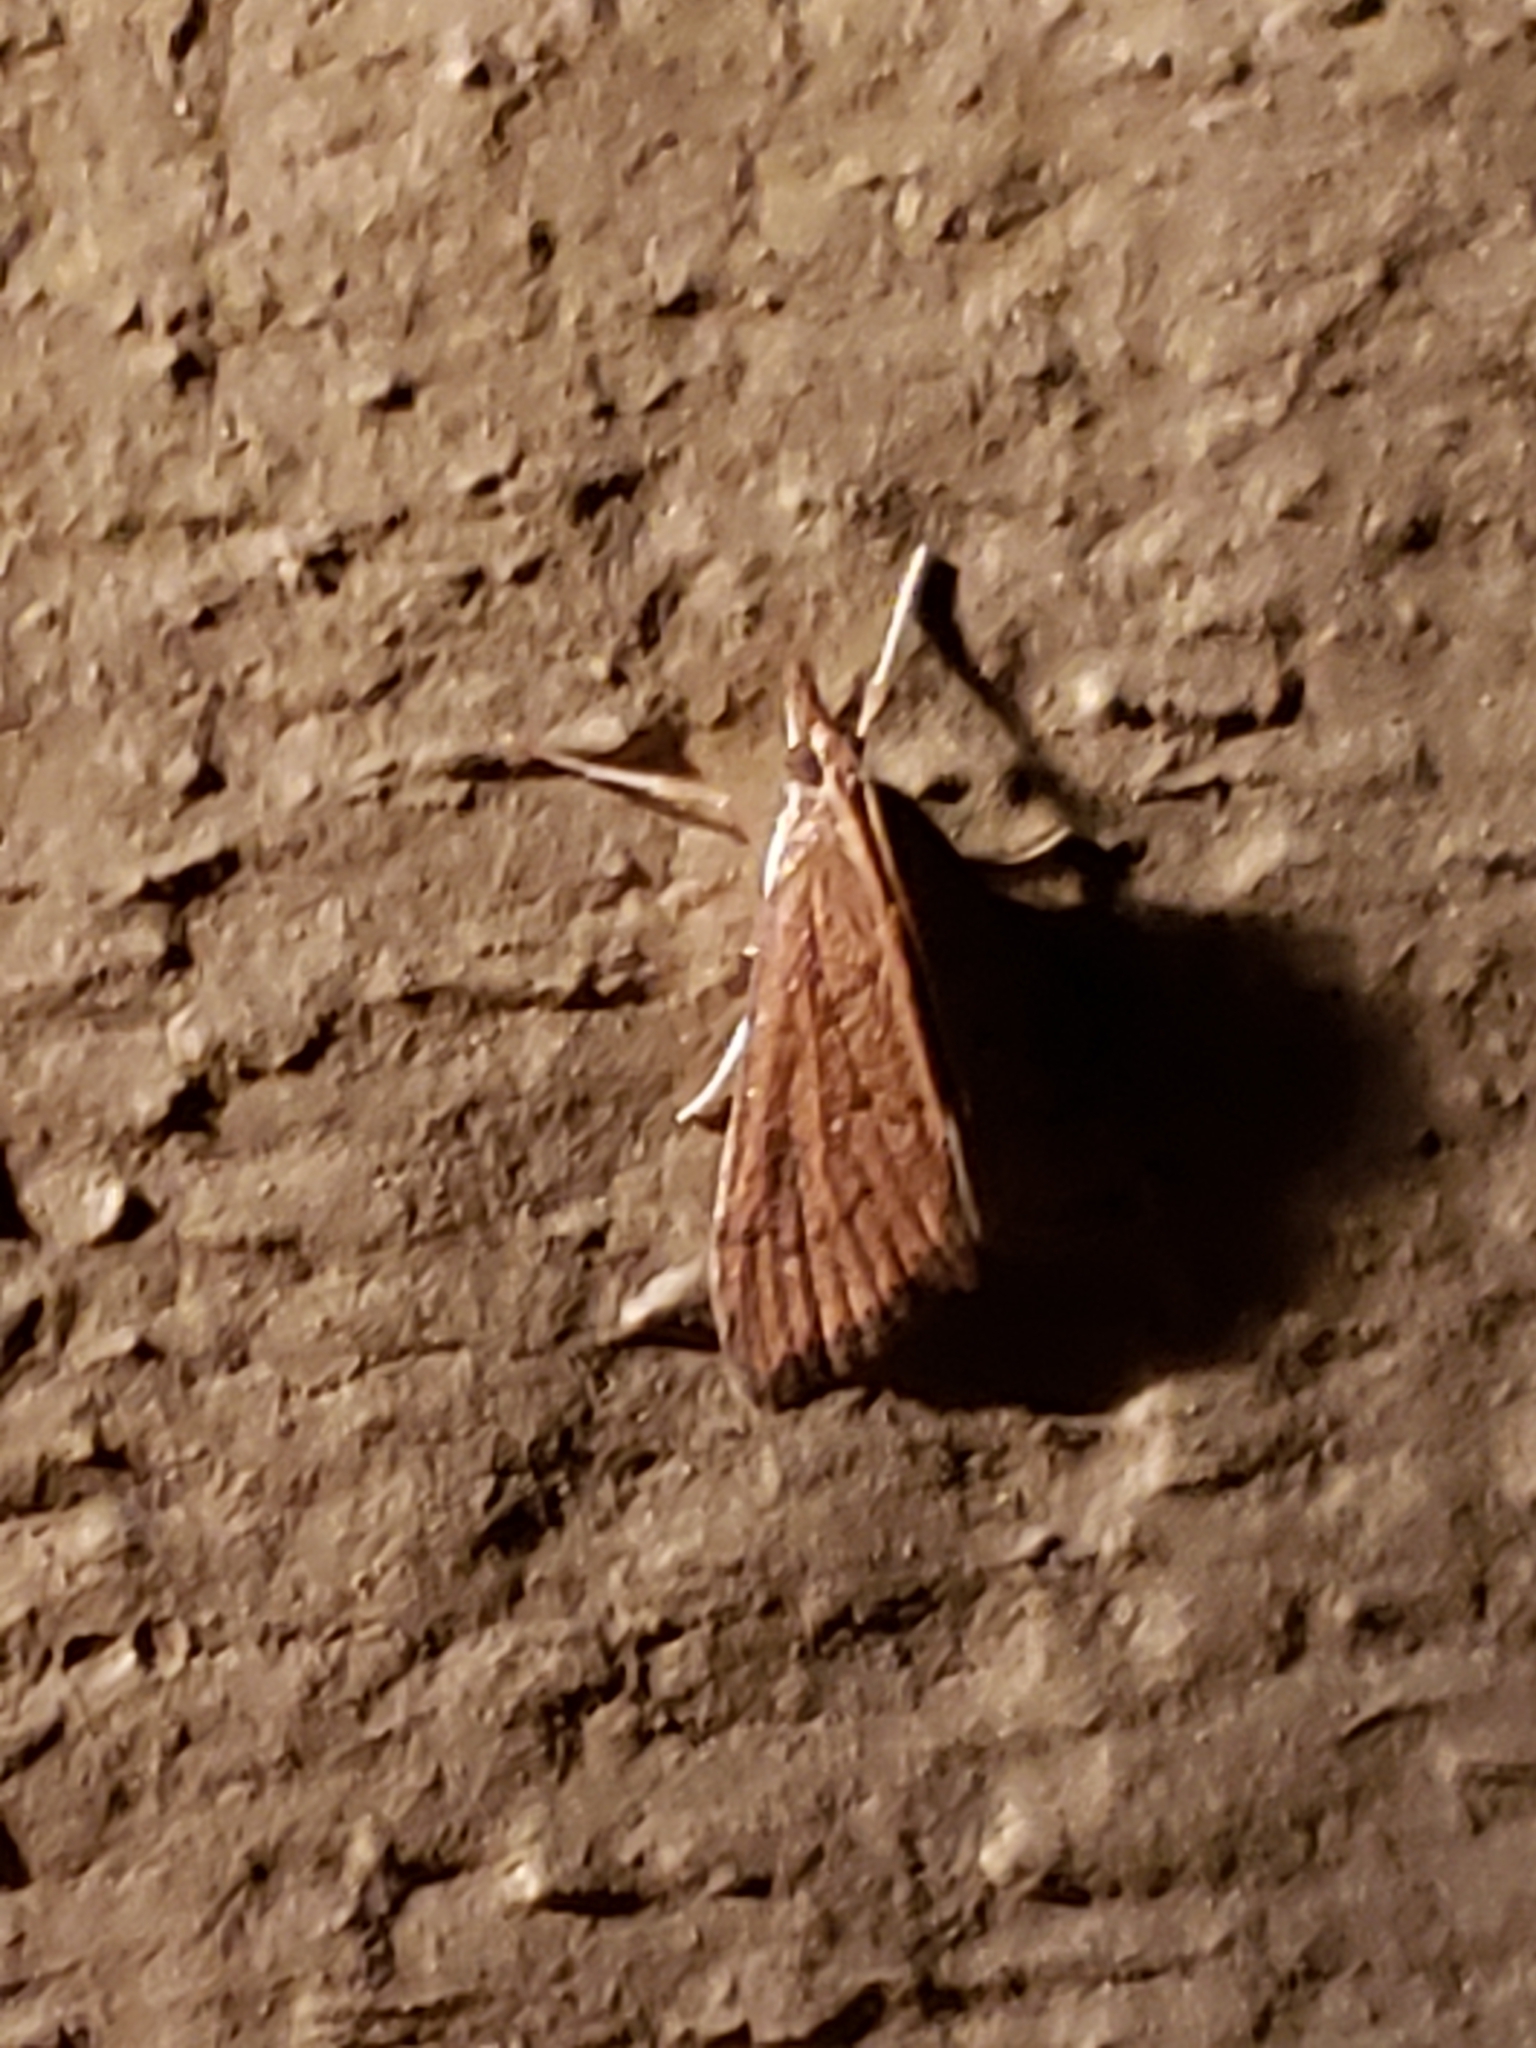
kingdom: Animalia
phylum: Arthropoda
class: Insecta
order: Lepidoptera
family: Crambidae
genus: Udea
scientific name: Udea rubigalis
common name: Celery leaftier moth
